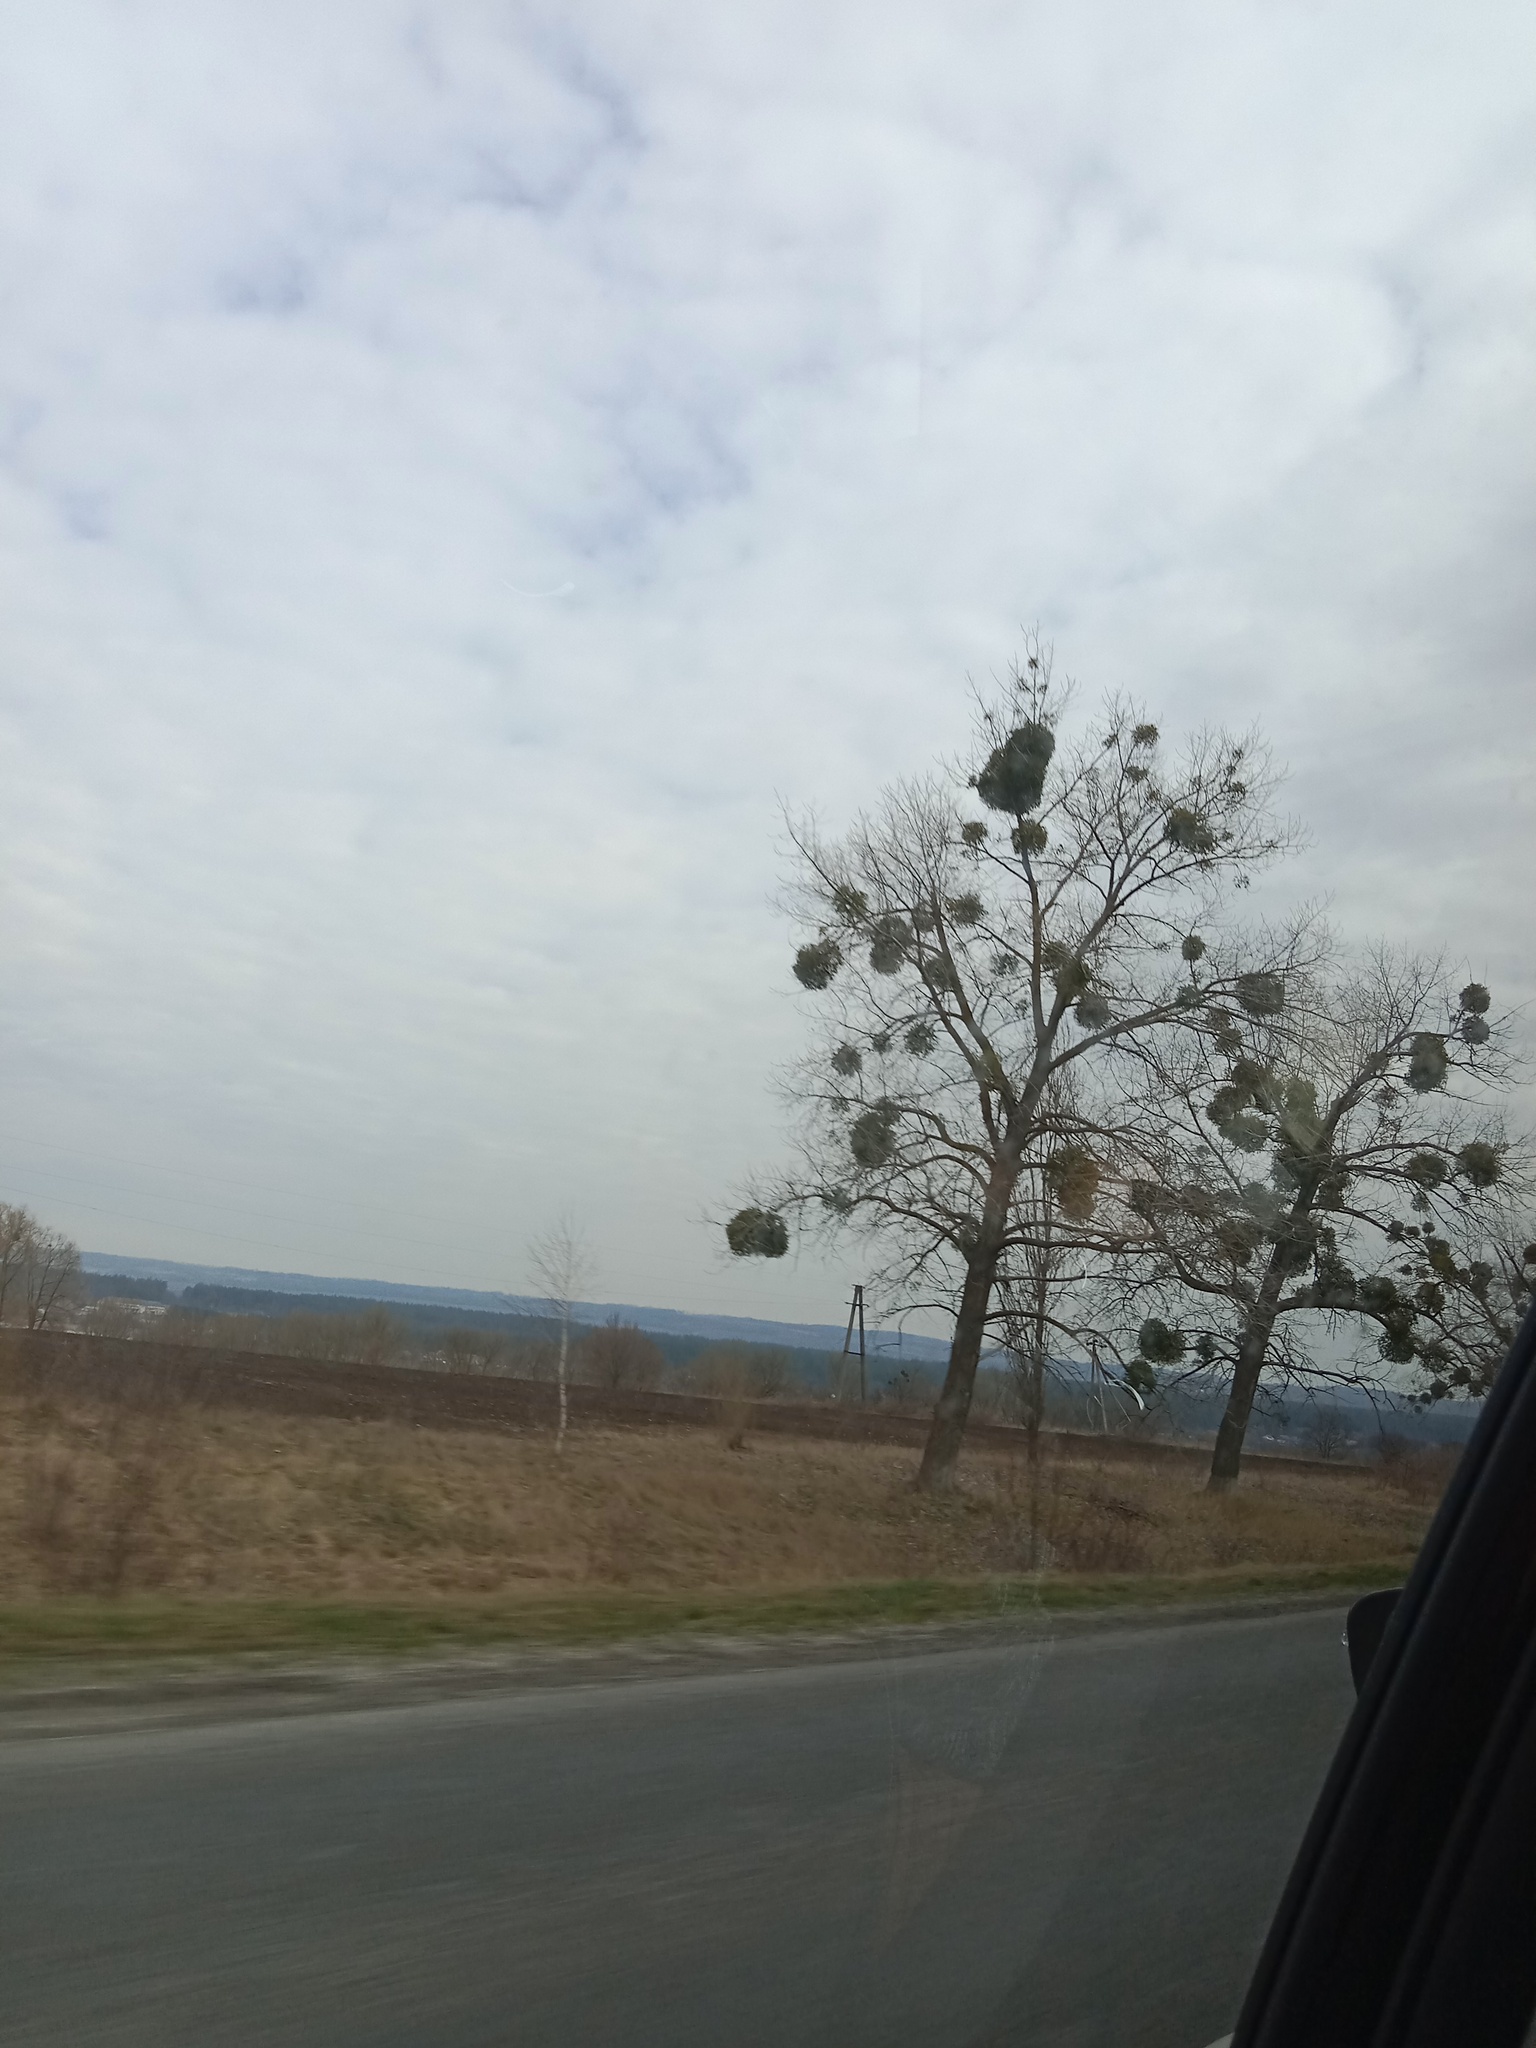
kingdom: Plantae
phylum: Tracheophyta
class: Magnoliopsida
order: Santalales
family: Viscaceae
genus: Viscum
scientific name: Viscum album
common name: Mistletoe
